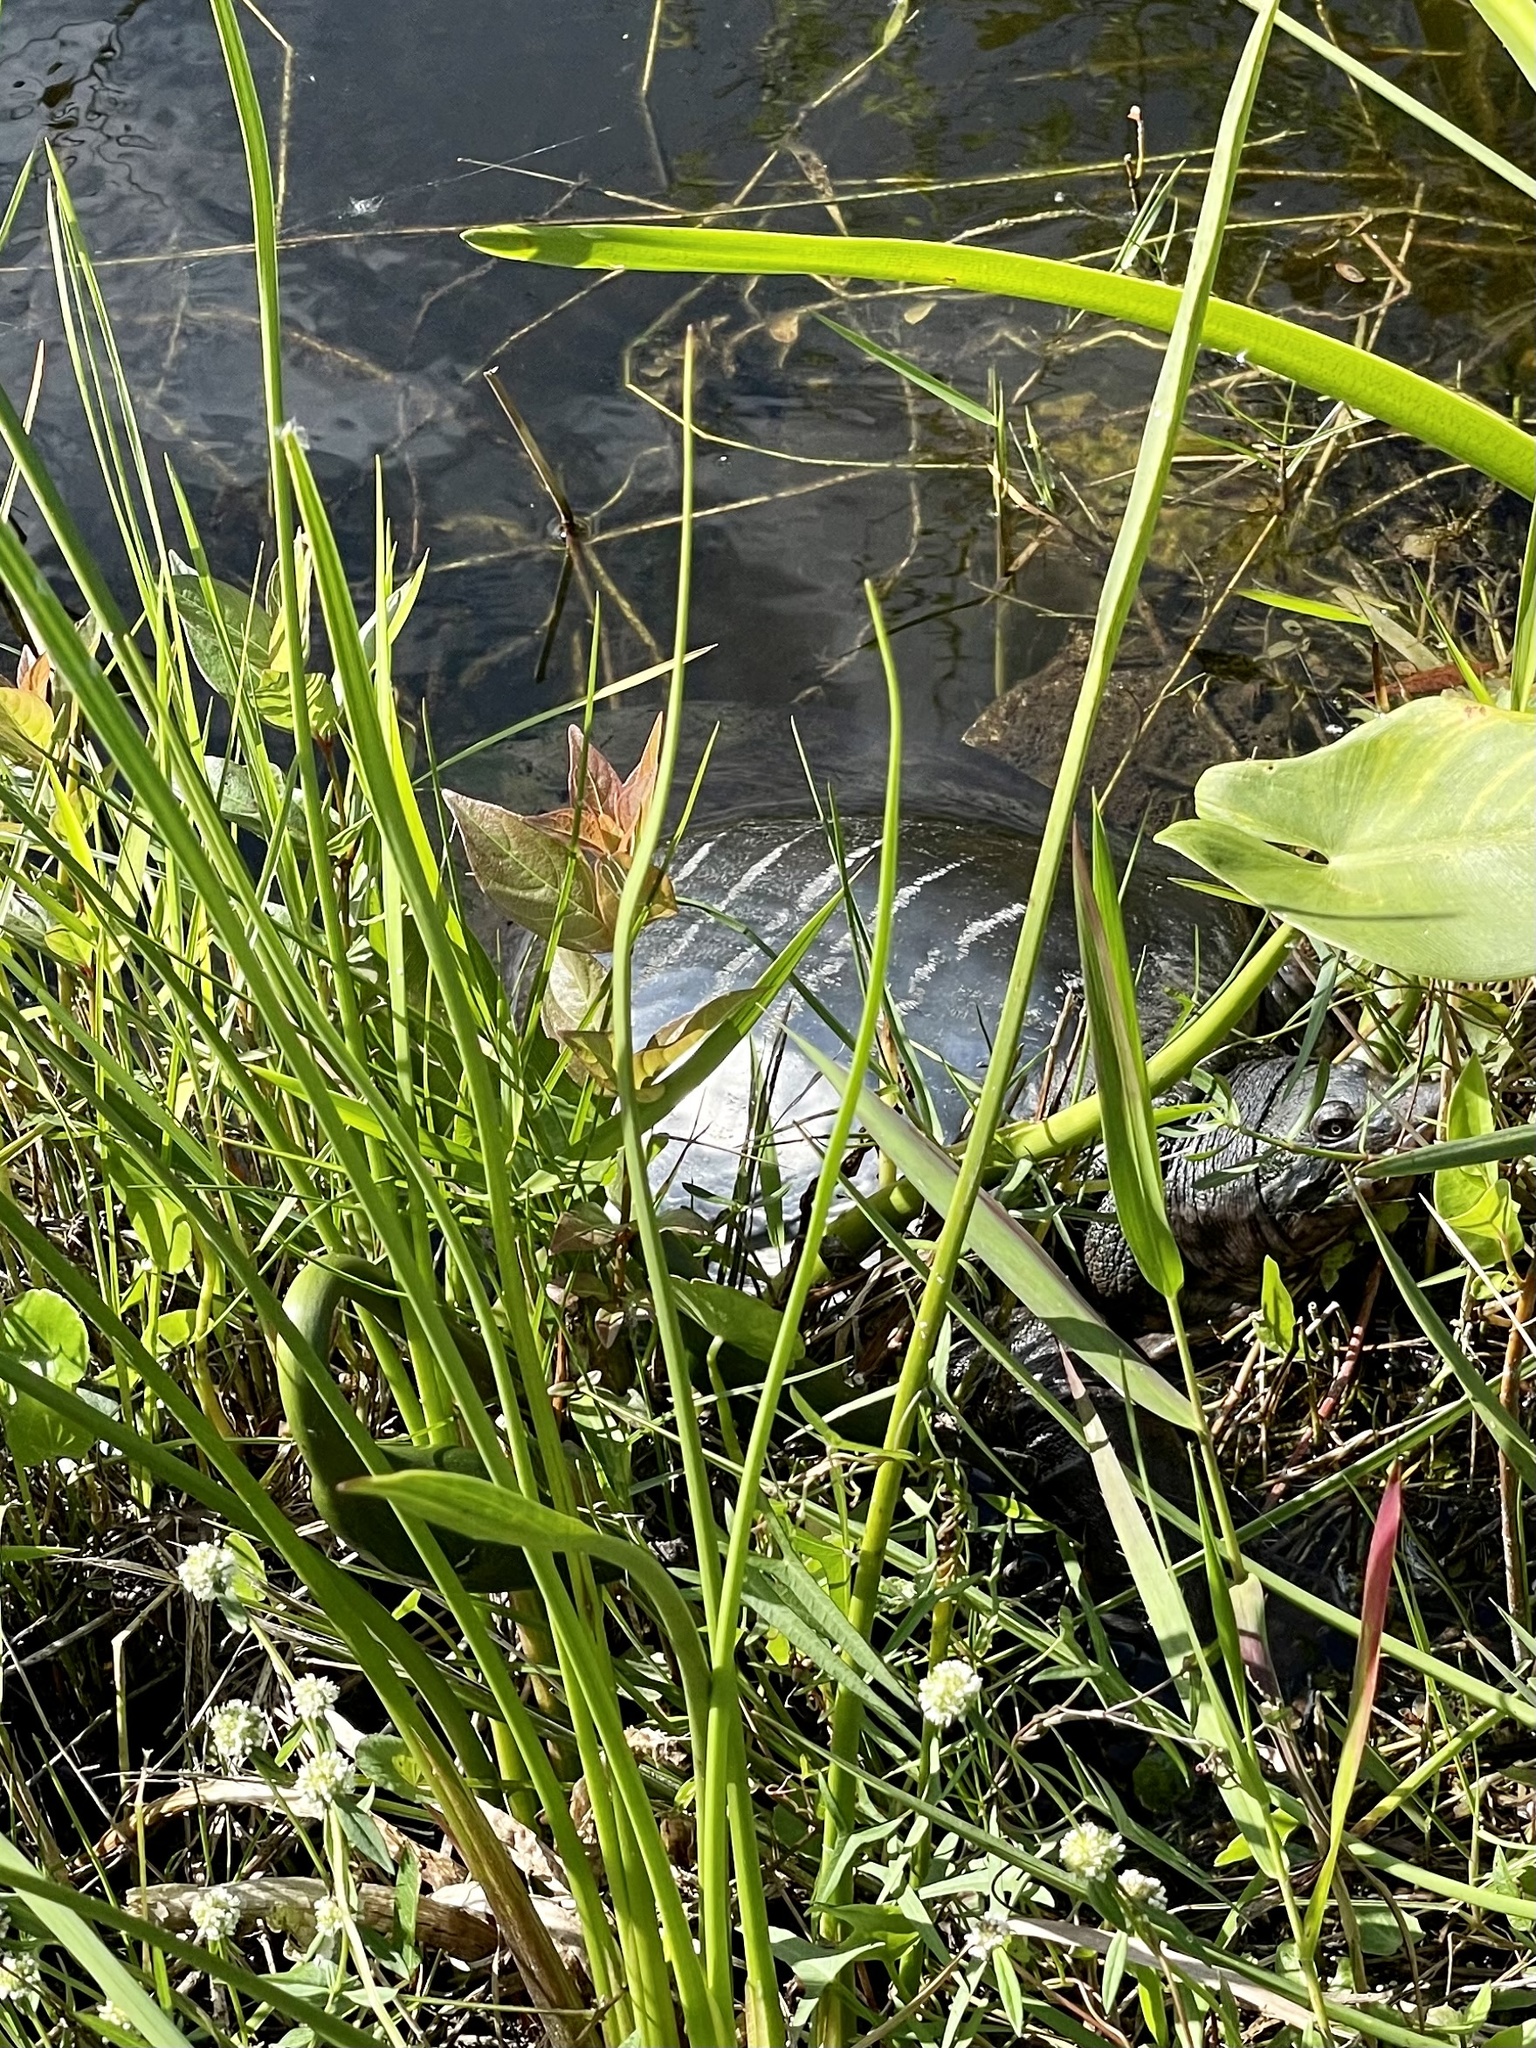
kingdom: Animalia
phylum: Chordata
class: Testudines
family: Trionychidae
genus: Apalone
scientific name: Apalone ferox
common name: Florida softshell turtle
